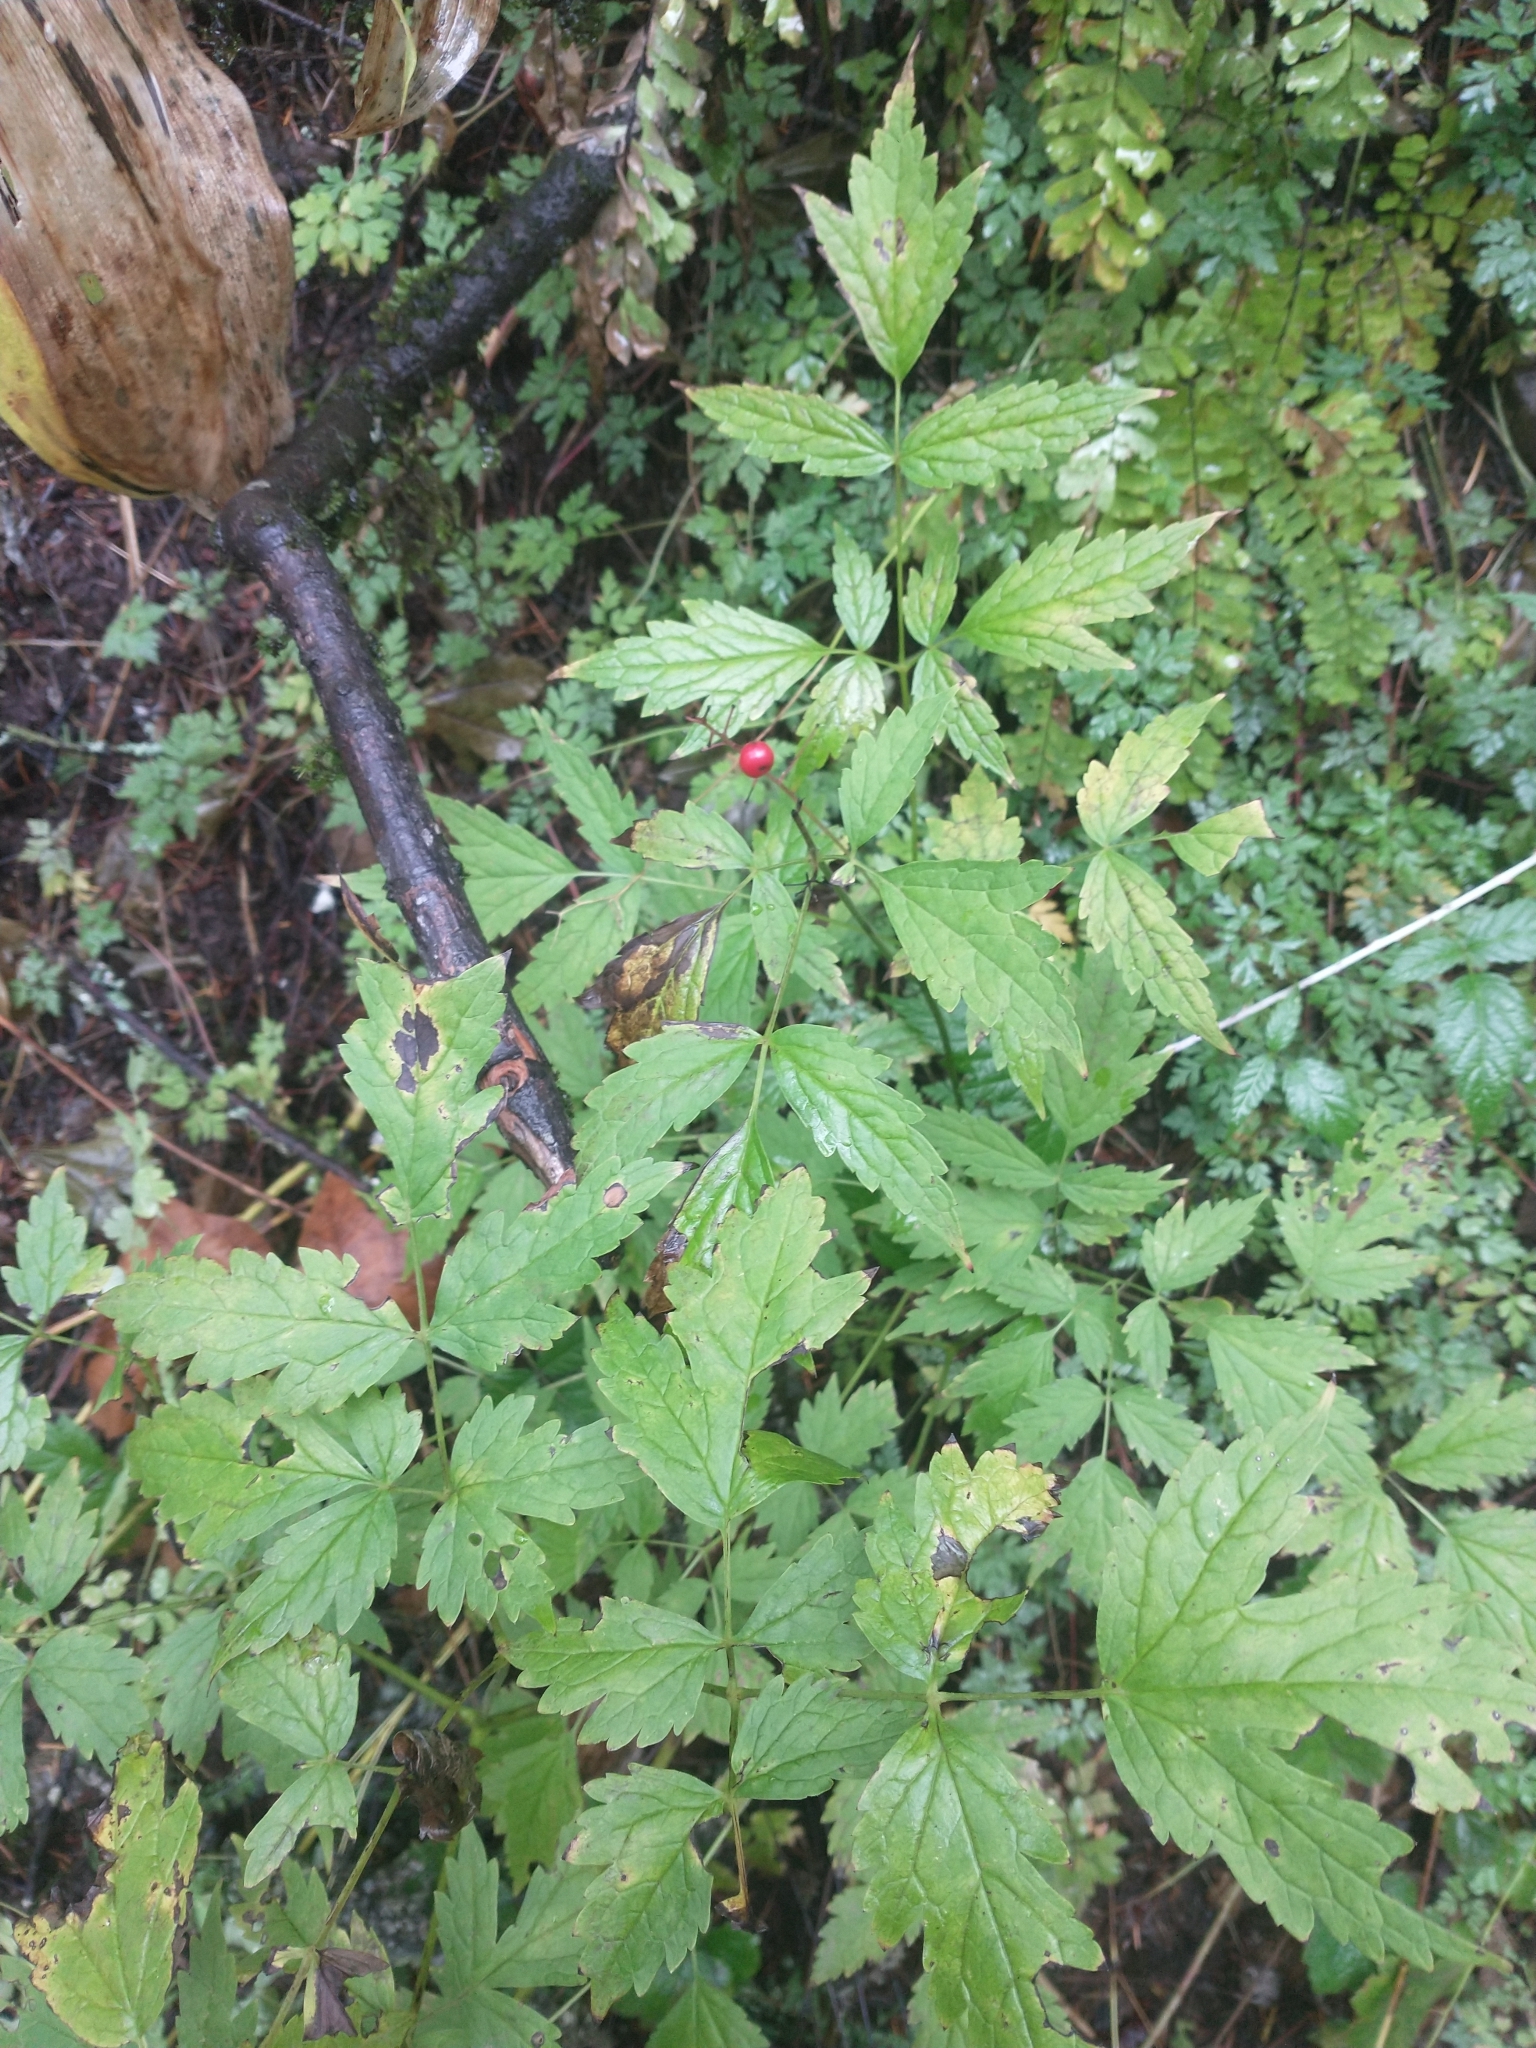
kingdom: Plantae
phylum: Tracheophyta
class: Magnoliopsida
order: Ranunculales
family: Ranunculaceae
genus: Actaea
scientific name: Actaea rubra
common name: Red baneberry
